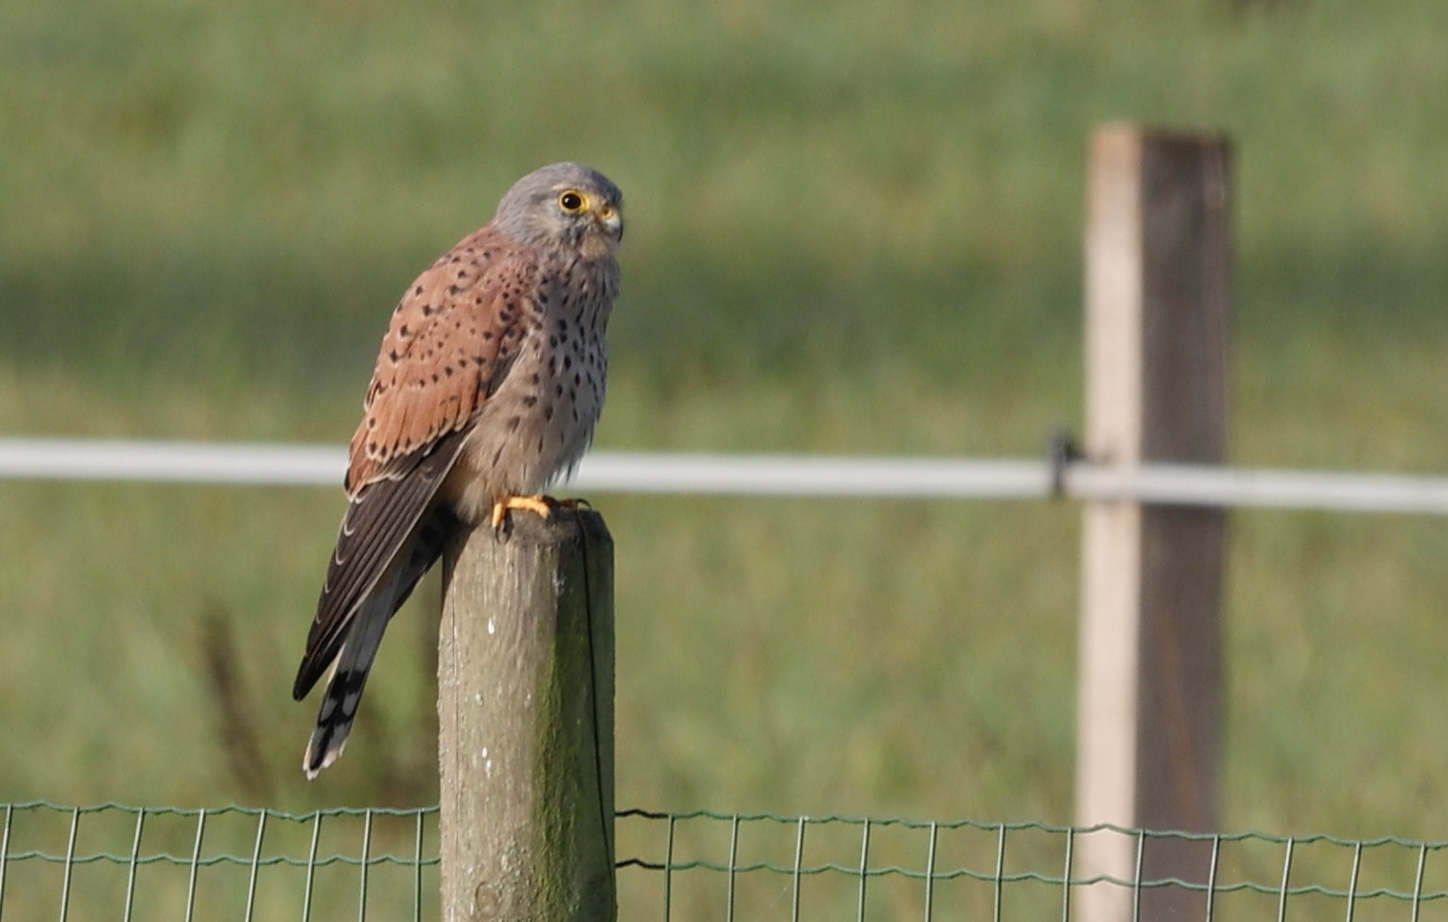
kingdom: Animalia
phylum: Chordata
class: Aves
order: Falconiformes
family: Falconidae
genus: Falco
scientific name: Falco tinnunculus
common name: Common kestrel
